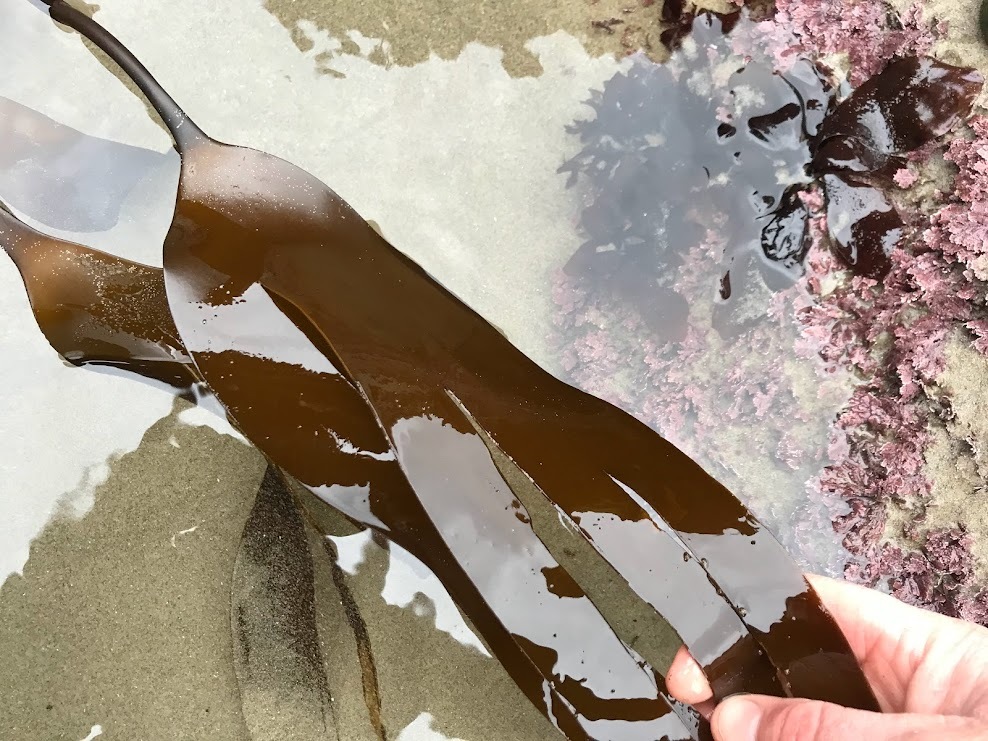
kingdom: Chromista
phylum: Ochrophyta
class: Phaeophyceae
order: Laminariales
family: Laminariaceae
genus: Laminaria
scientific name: Laminaria setchellii
